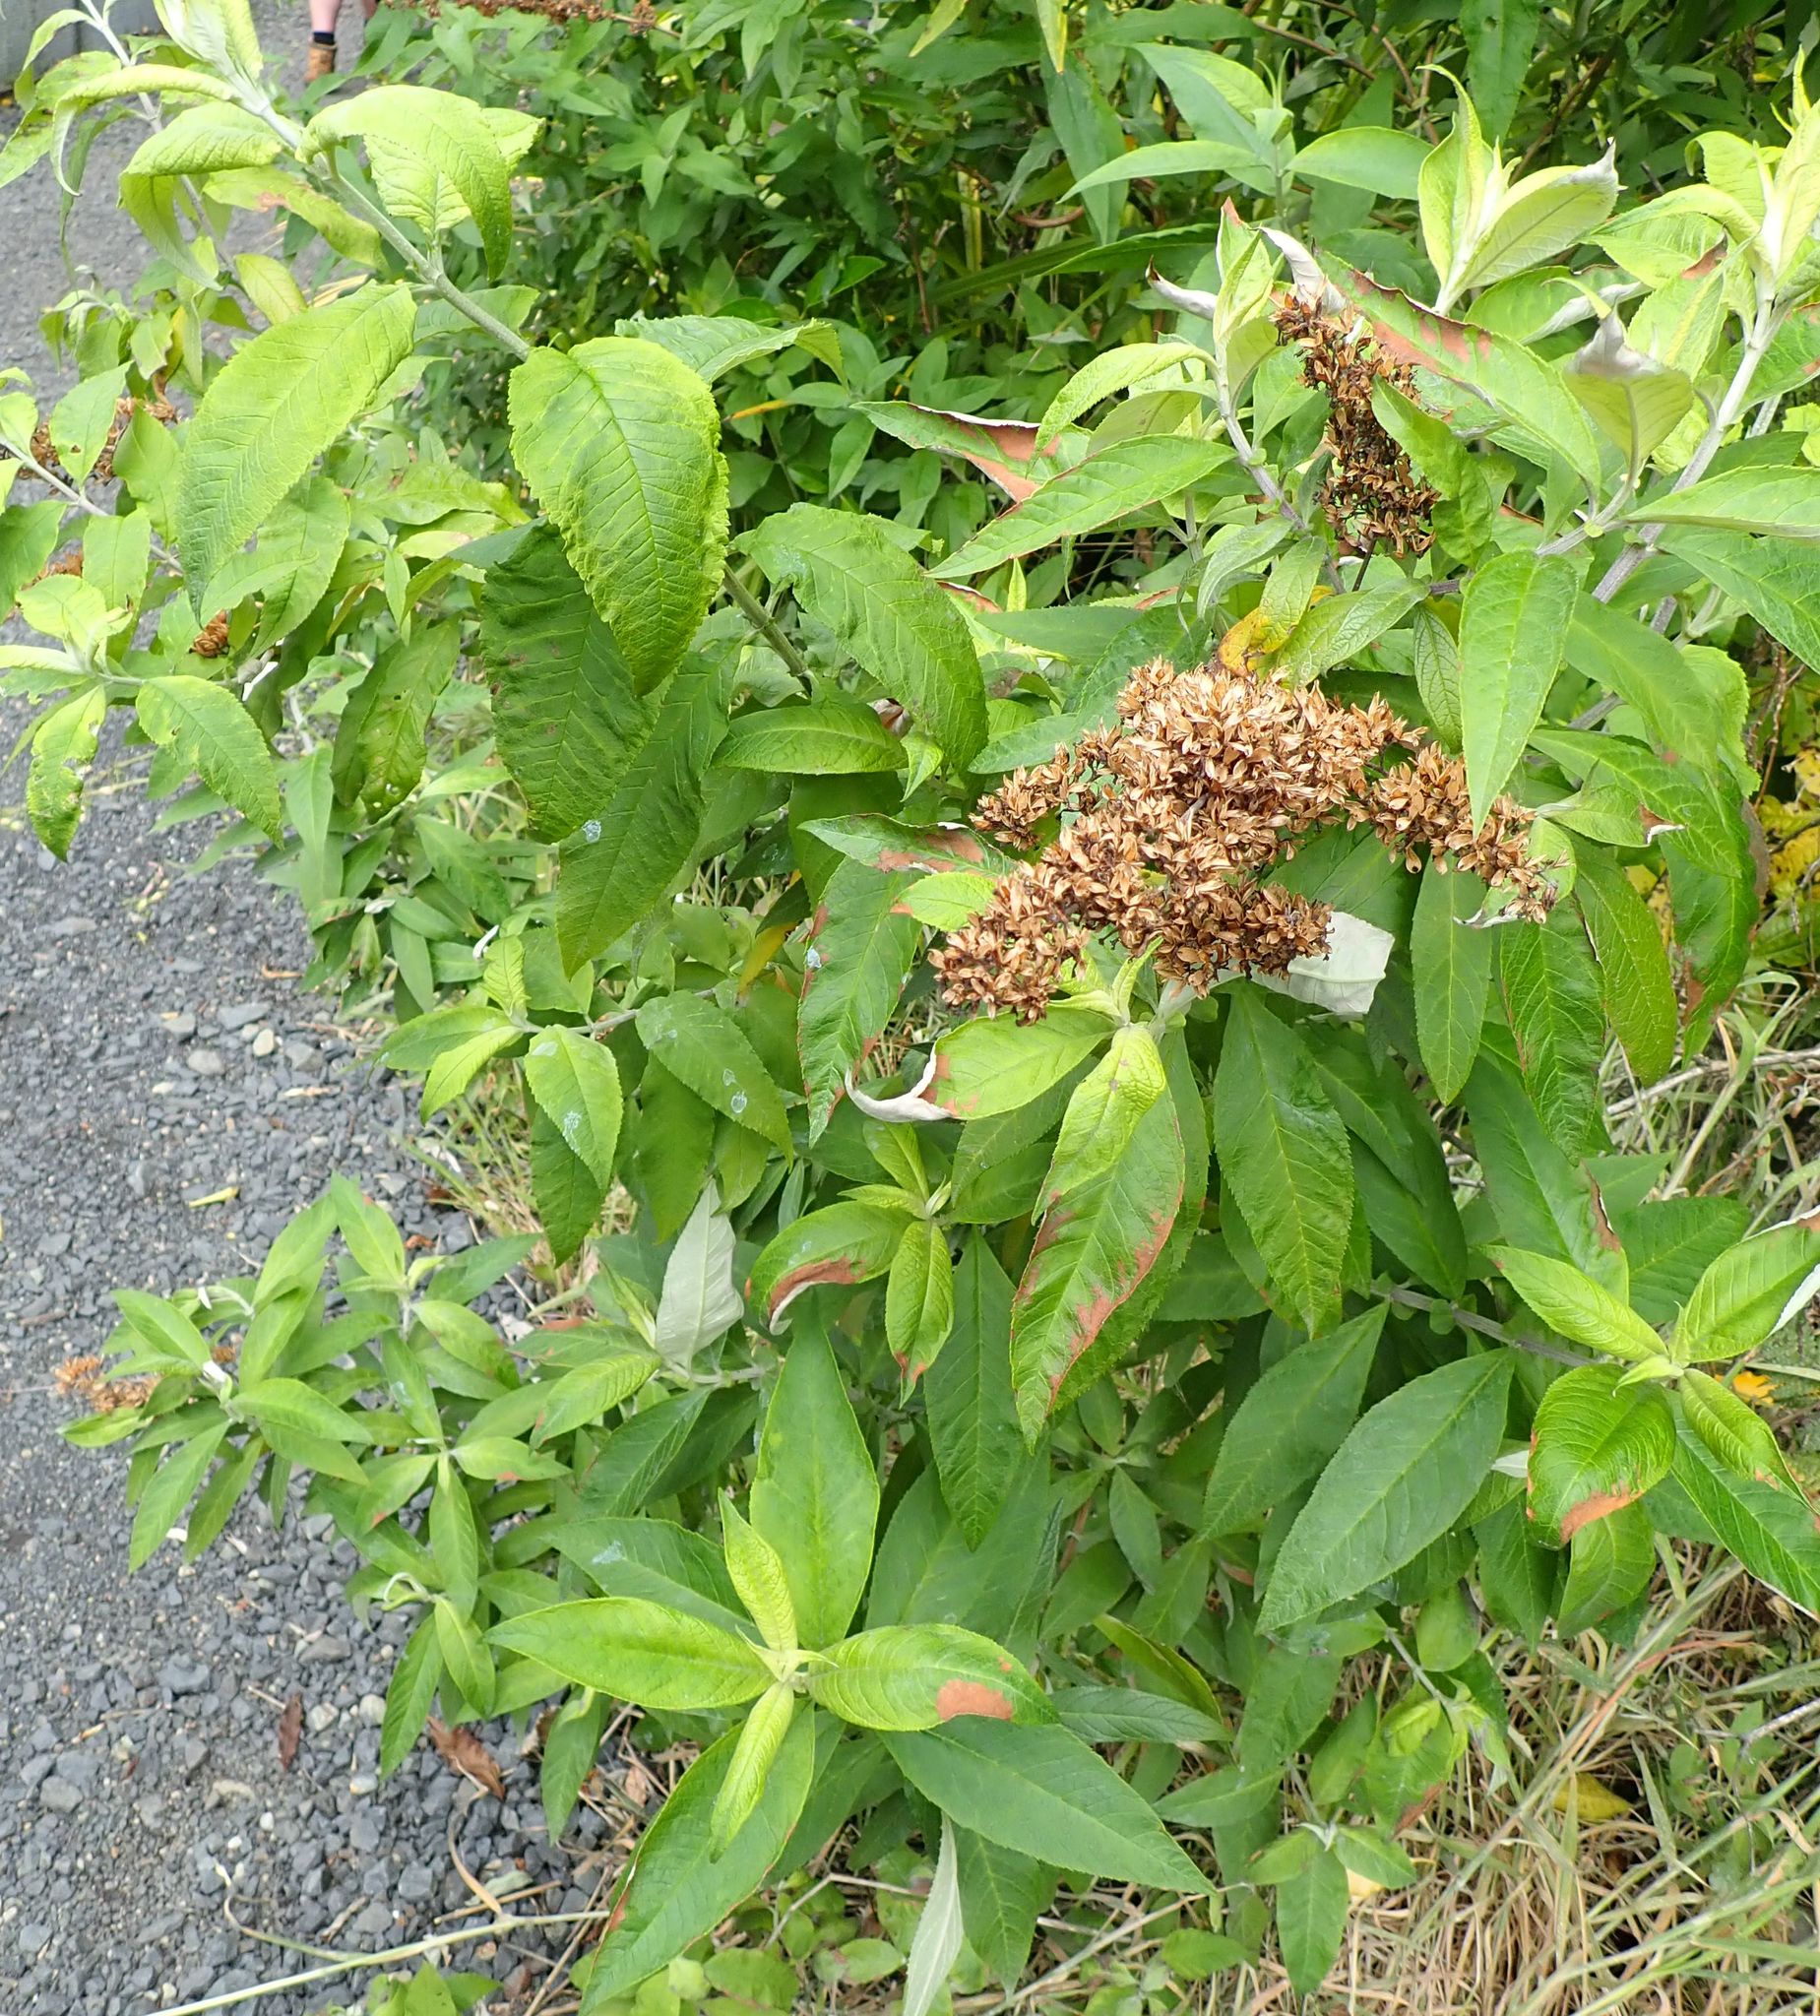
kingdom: Plantae
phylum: Tracheophyta
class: Magnoliopsida
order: Lamiales
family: Scrophulariaceae
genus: Buddleja
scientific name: Buddleja davidii
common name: Butterfly-bush
